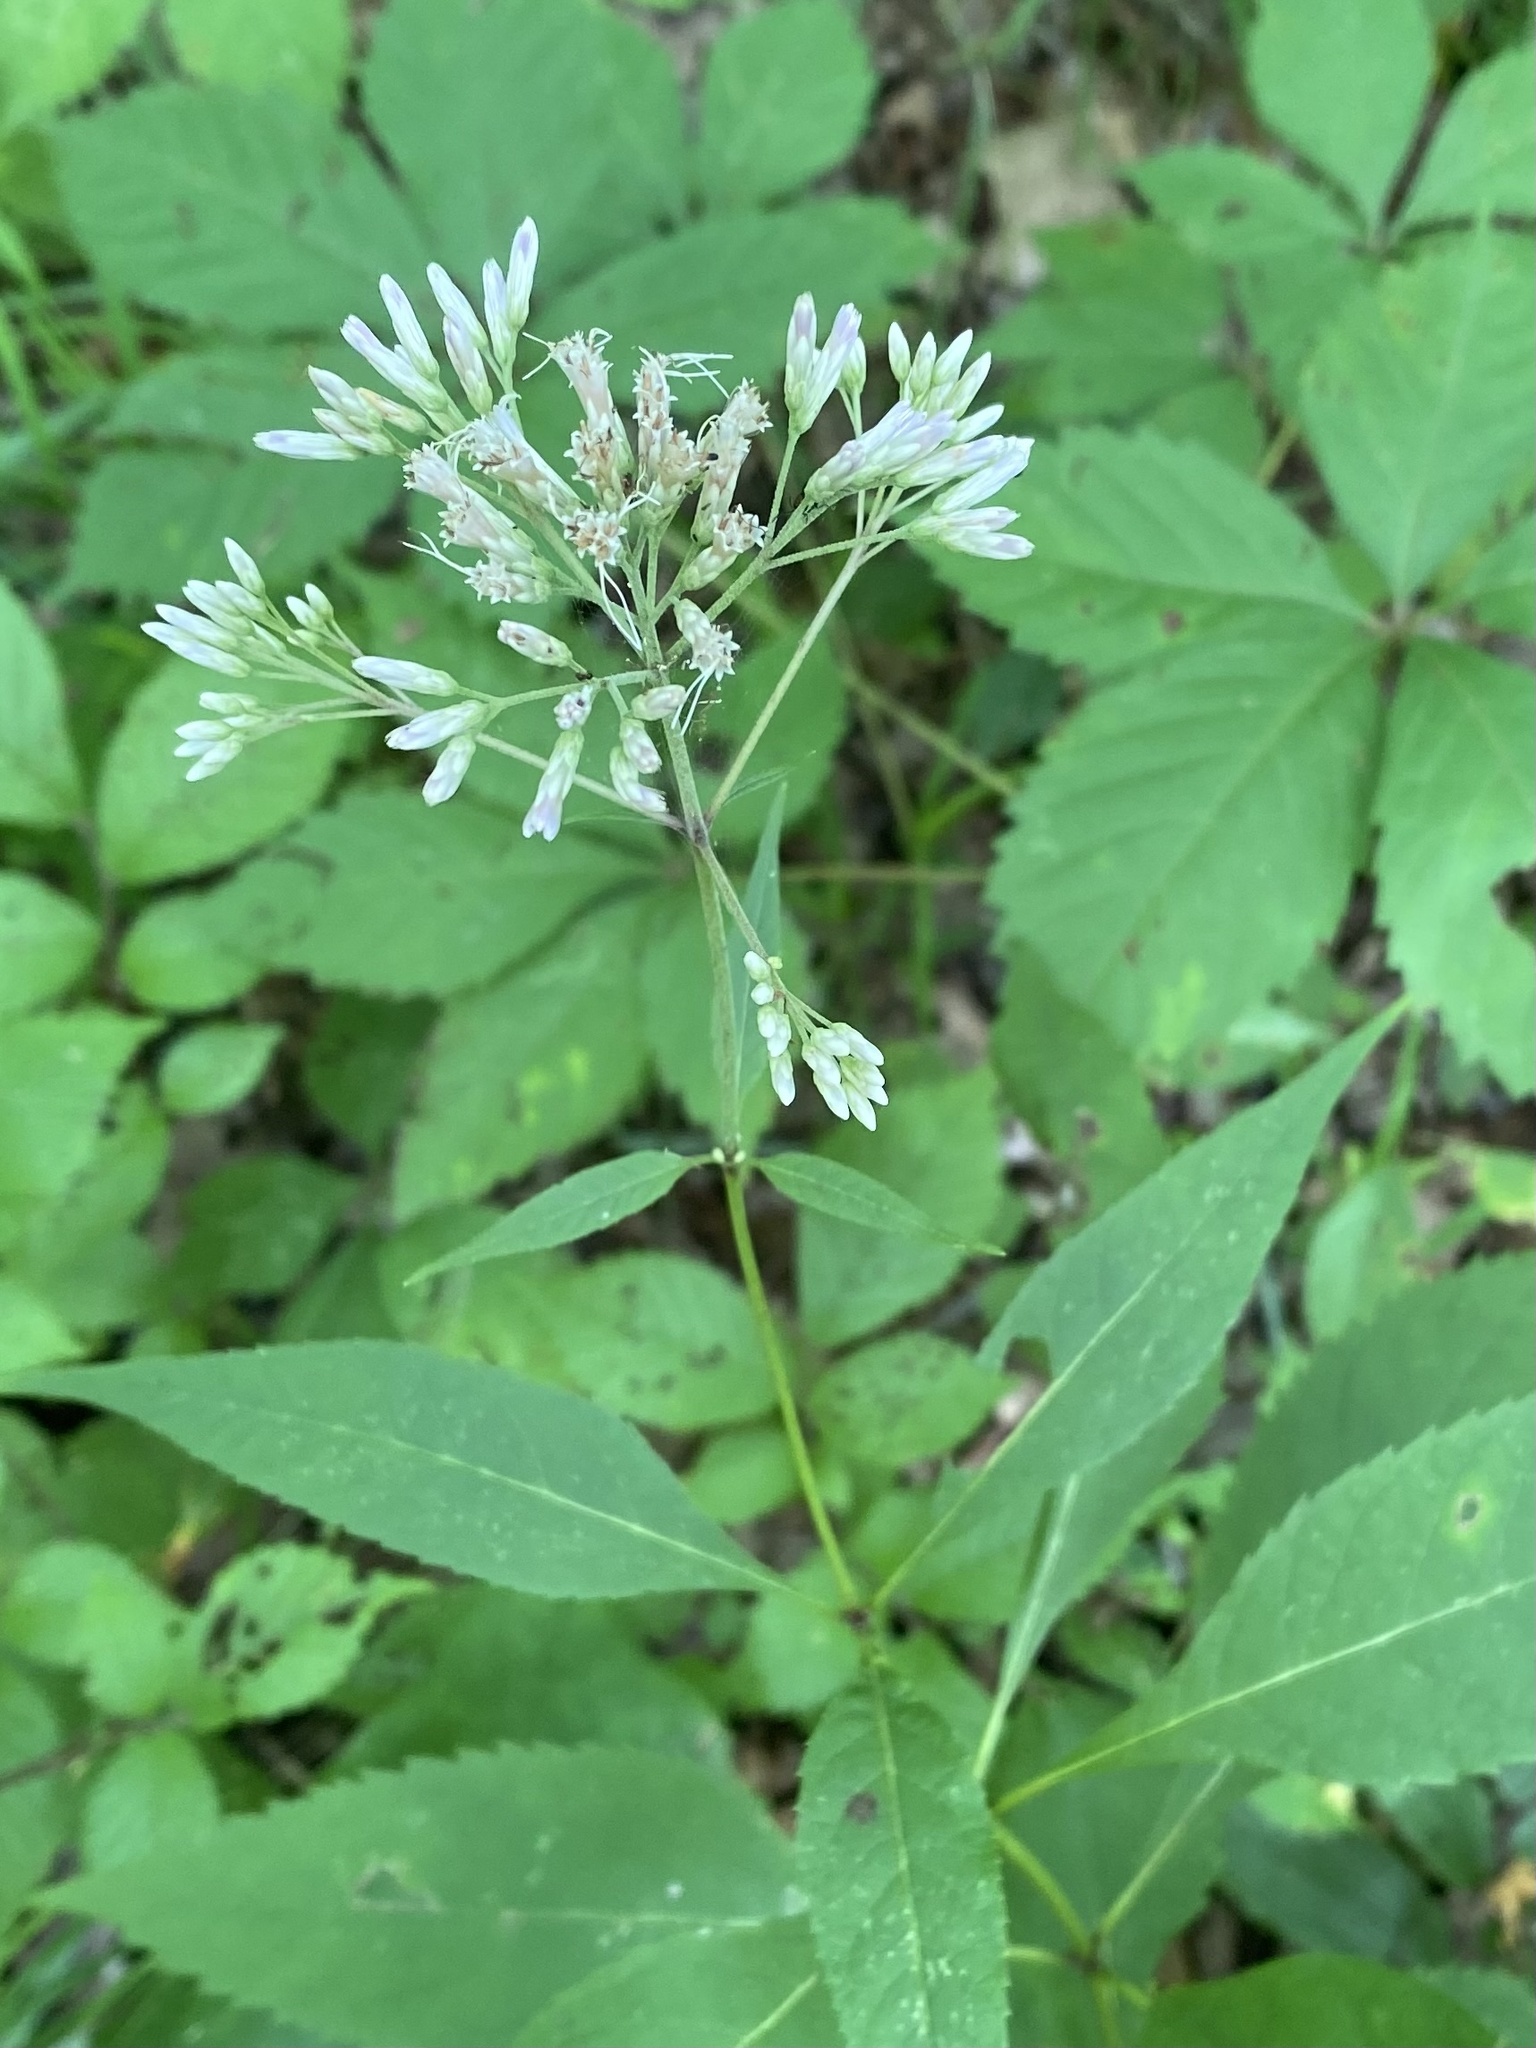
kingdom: Plantae
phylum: Tracheophyta
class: Magnoliopsida
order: Asterales
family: Asteraceae
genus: Eutrochium
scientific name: Eutrochium purpureum
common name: Gravelroot
